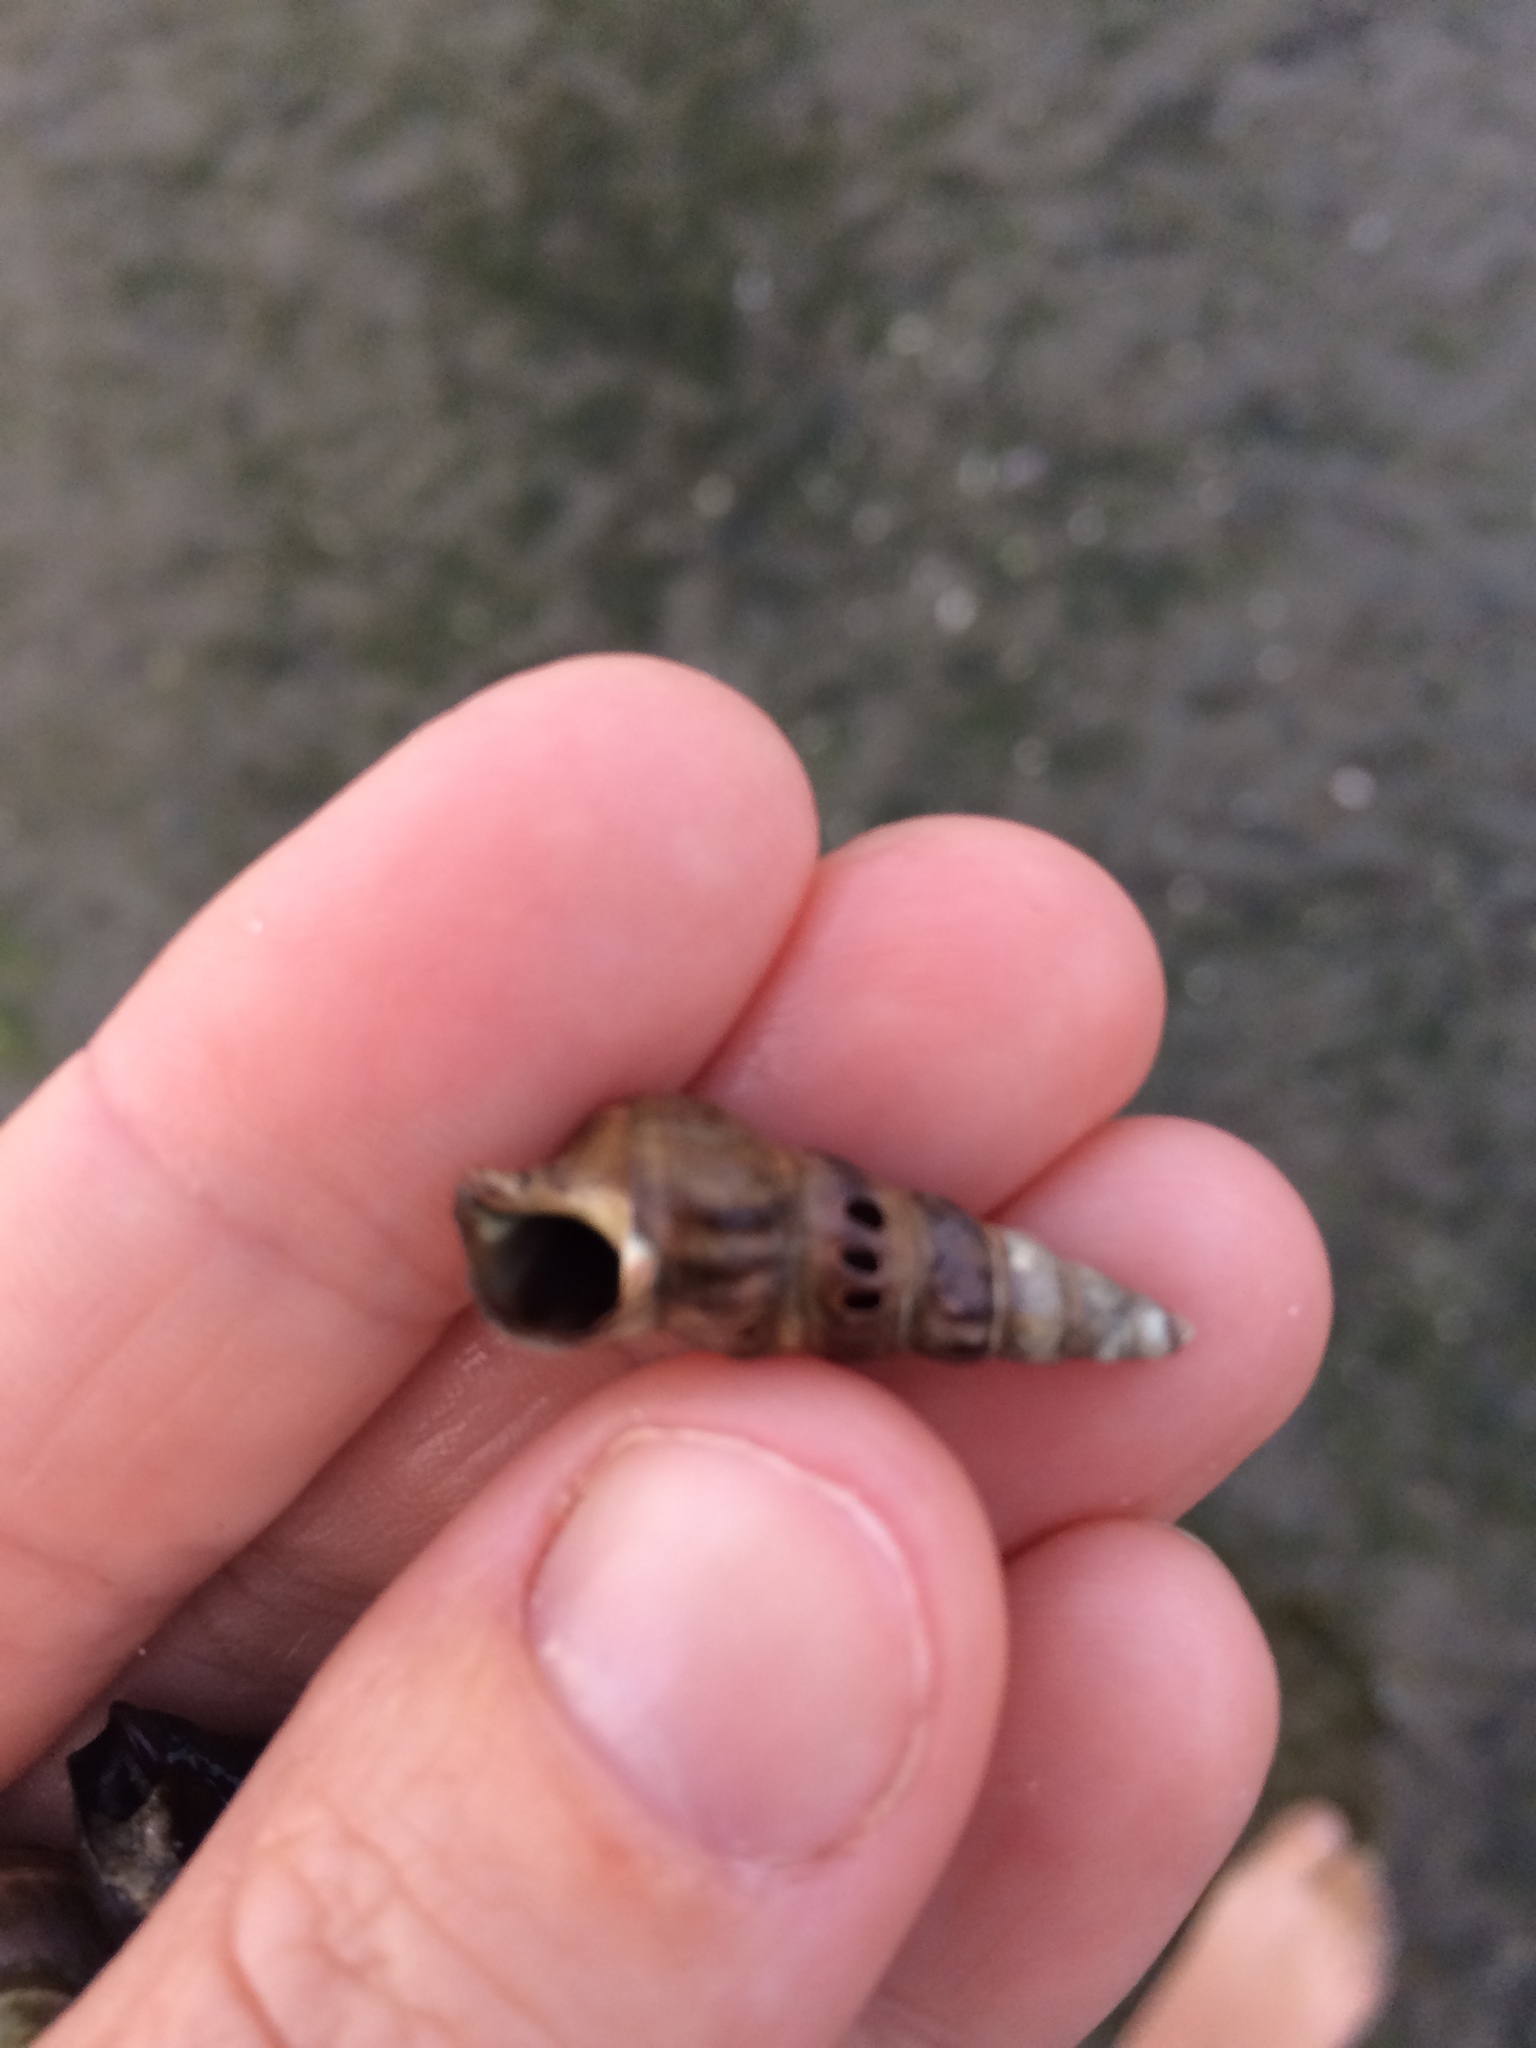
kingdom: Animalia
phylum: Mollusca
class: Gastropoda
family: Batillariidae
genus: Zeacumantus
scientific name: Zeacumantus lutulentus
